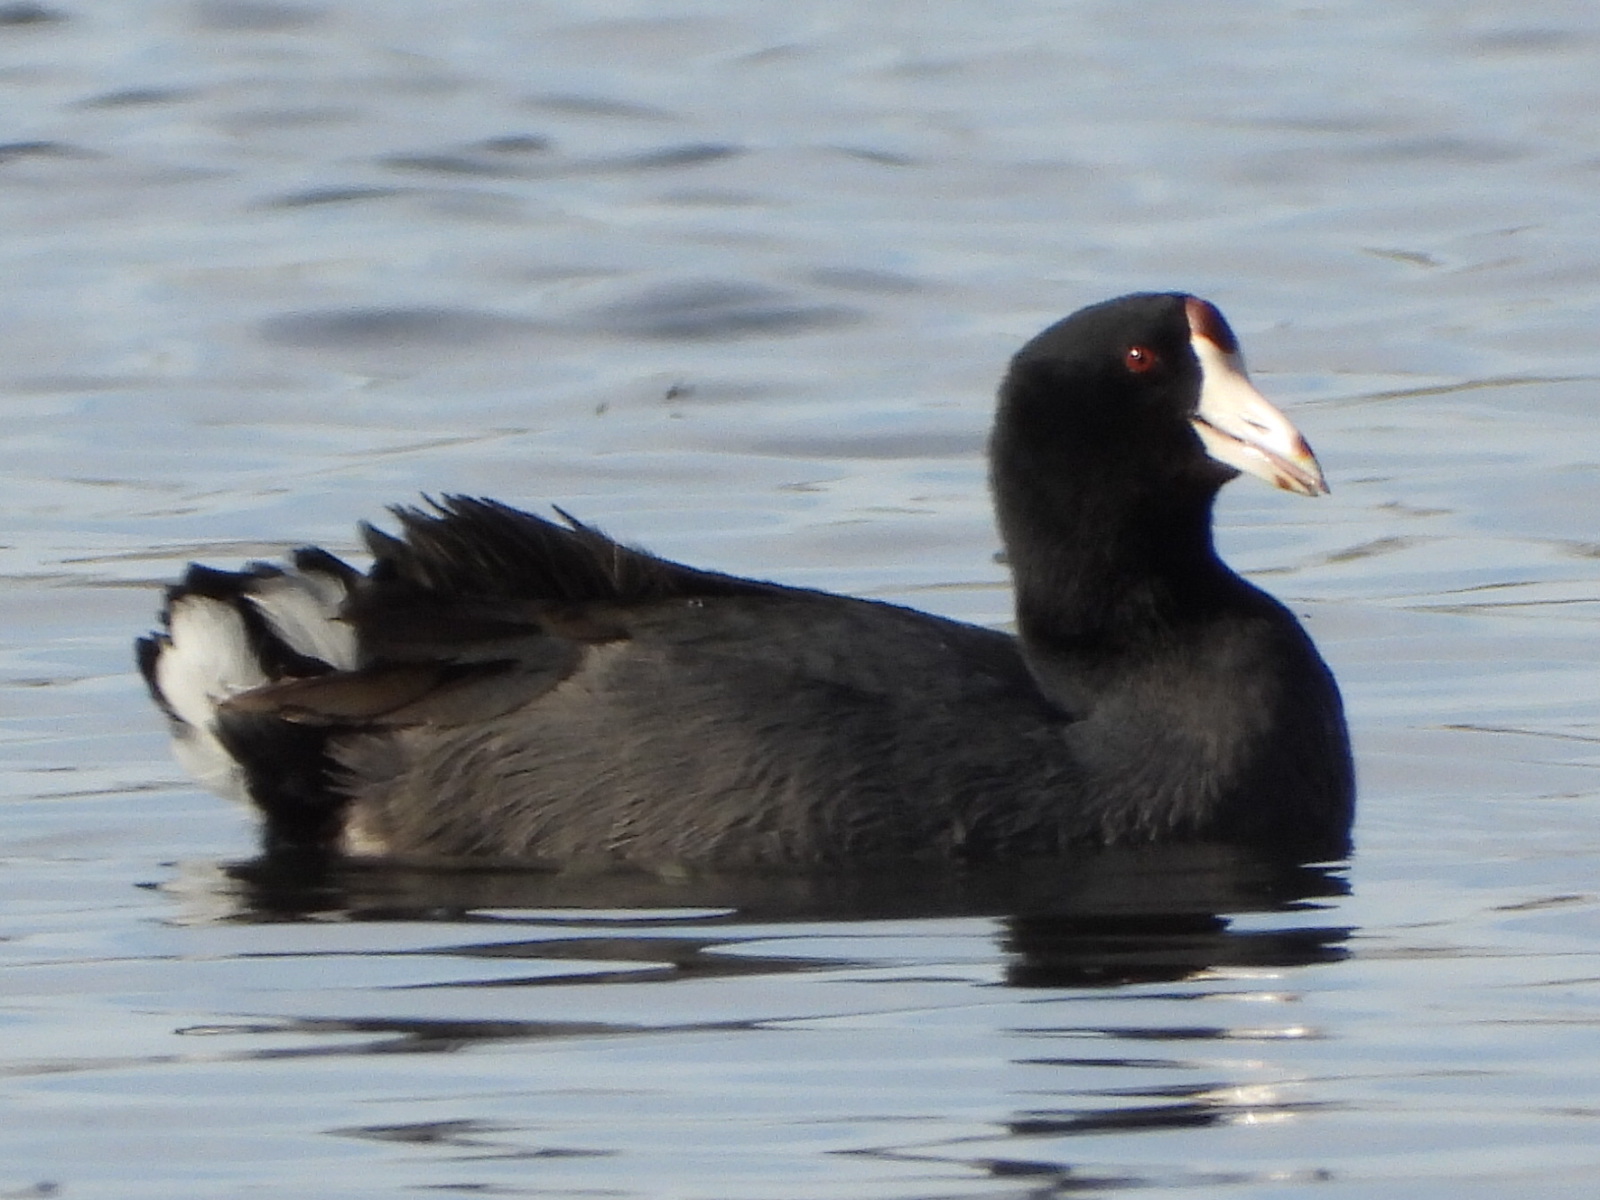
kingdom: Animalia
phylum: Chordata
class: Aves
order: Gruiformes
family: Rallidae
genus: Fulica
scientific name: Fulica americana
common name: American coot
